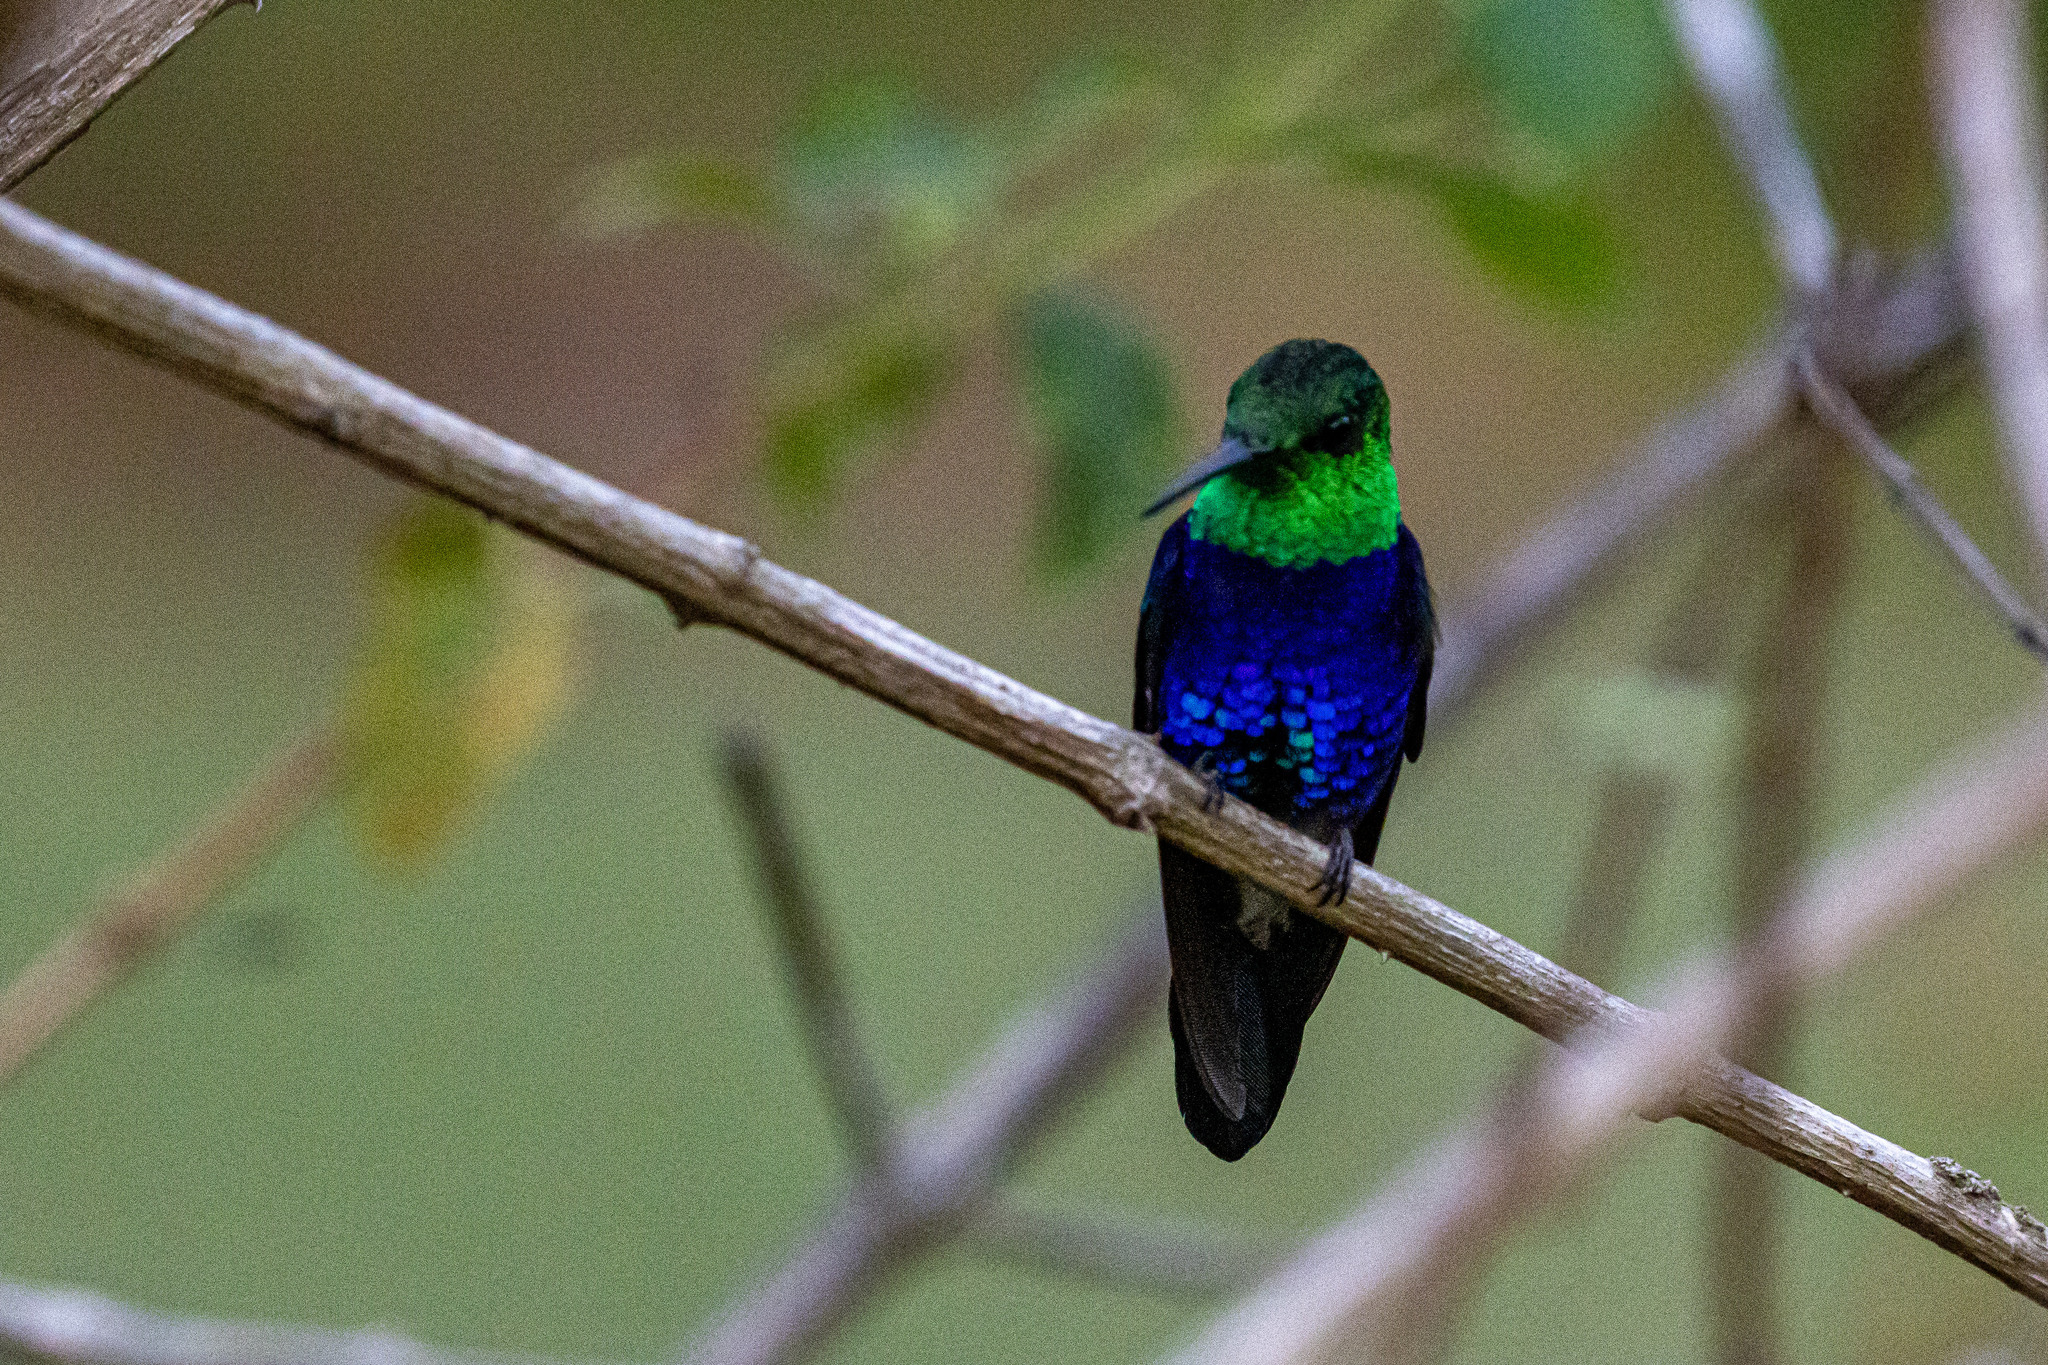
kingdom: Animalia
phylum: Chordata
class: Aves
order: Apodiformes
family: Trochilidae
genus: Thalurania
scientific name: Thalurania furcata
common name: Fork-tailed woodnymph
